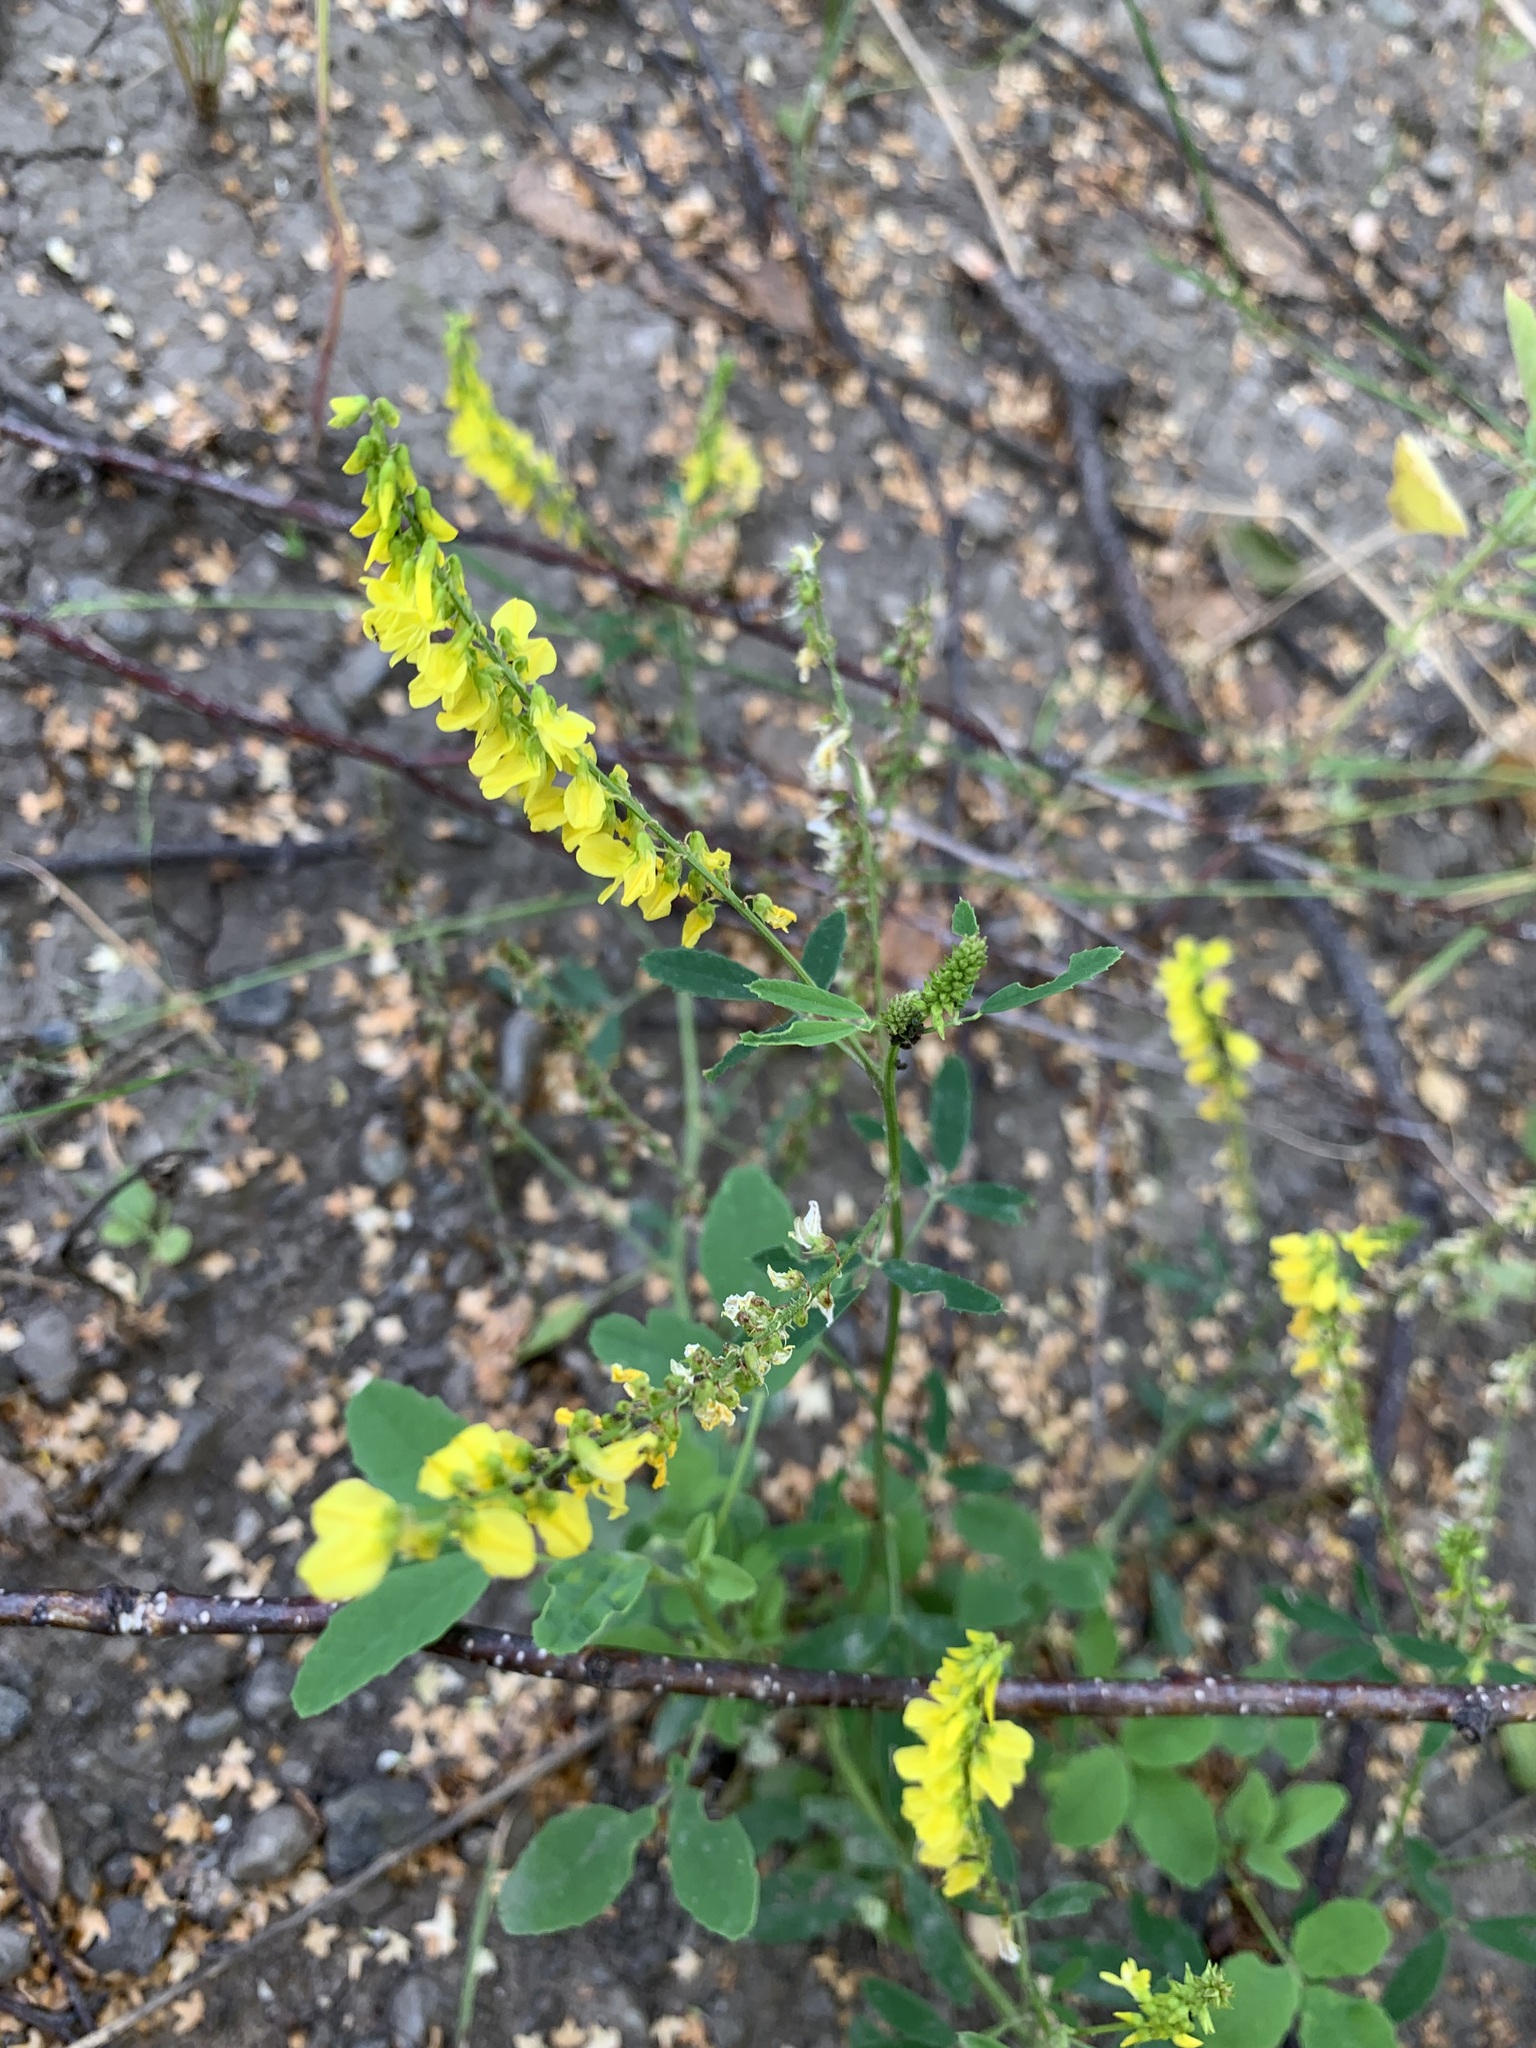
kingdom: Plantae
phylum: Tracheophyta
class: Magnoliopsida
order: Fabales
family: Fabaceae
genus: Melilotus
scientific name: Melilotus officinalis
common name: Sweetclover
